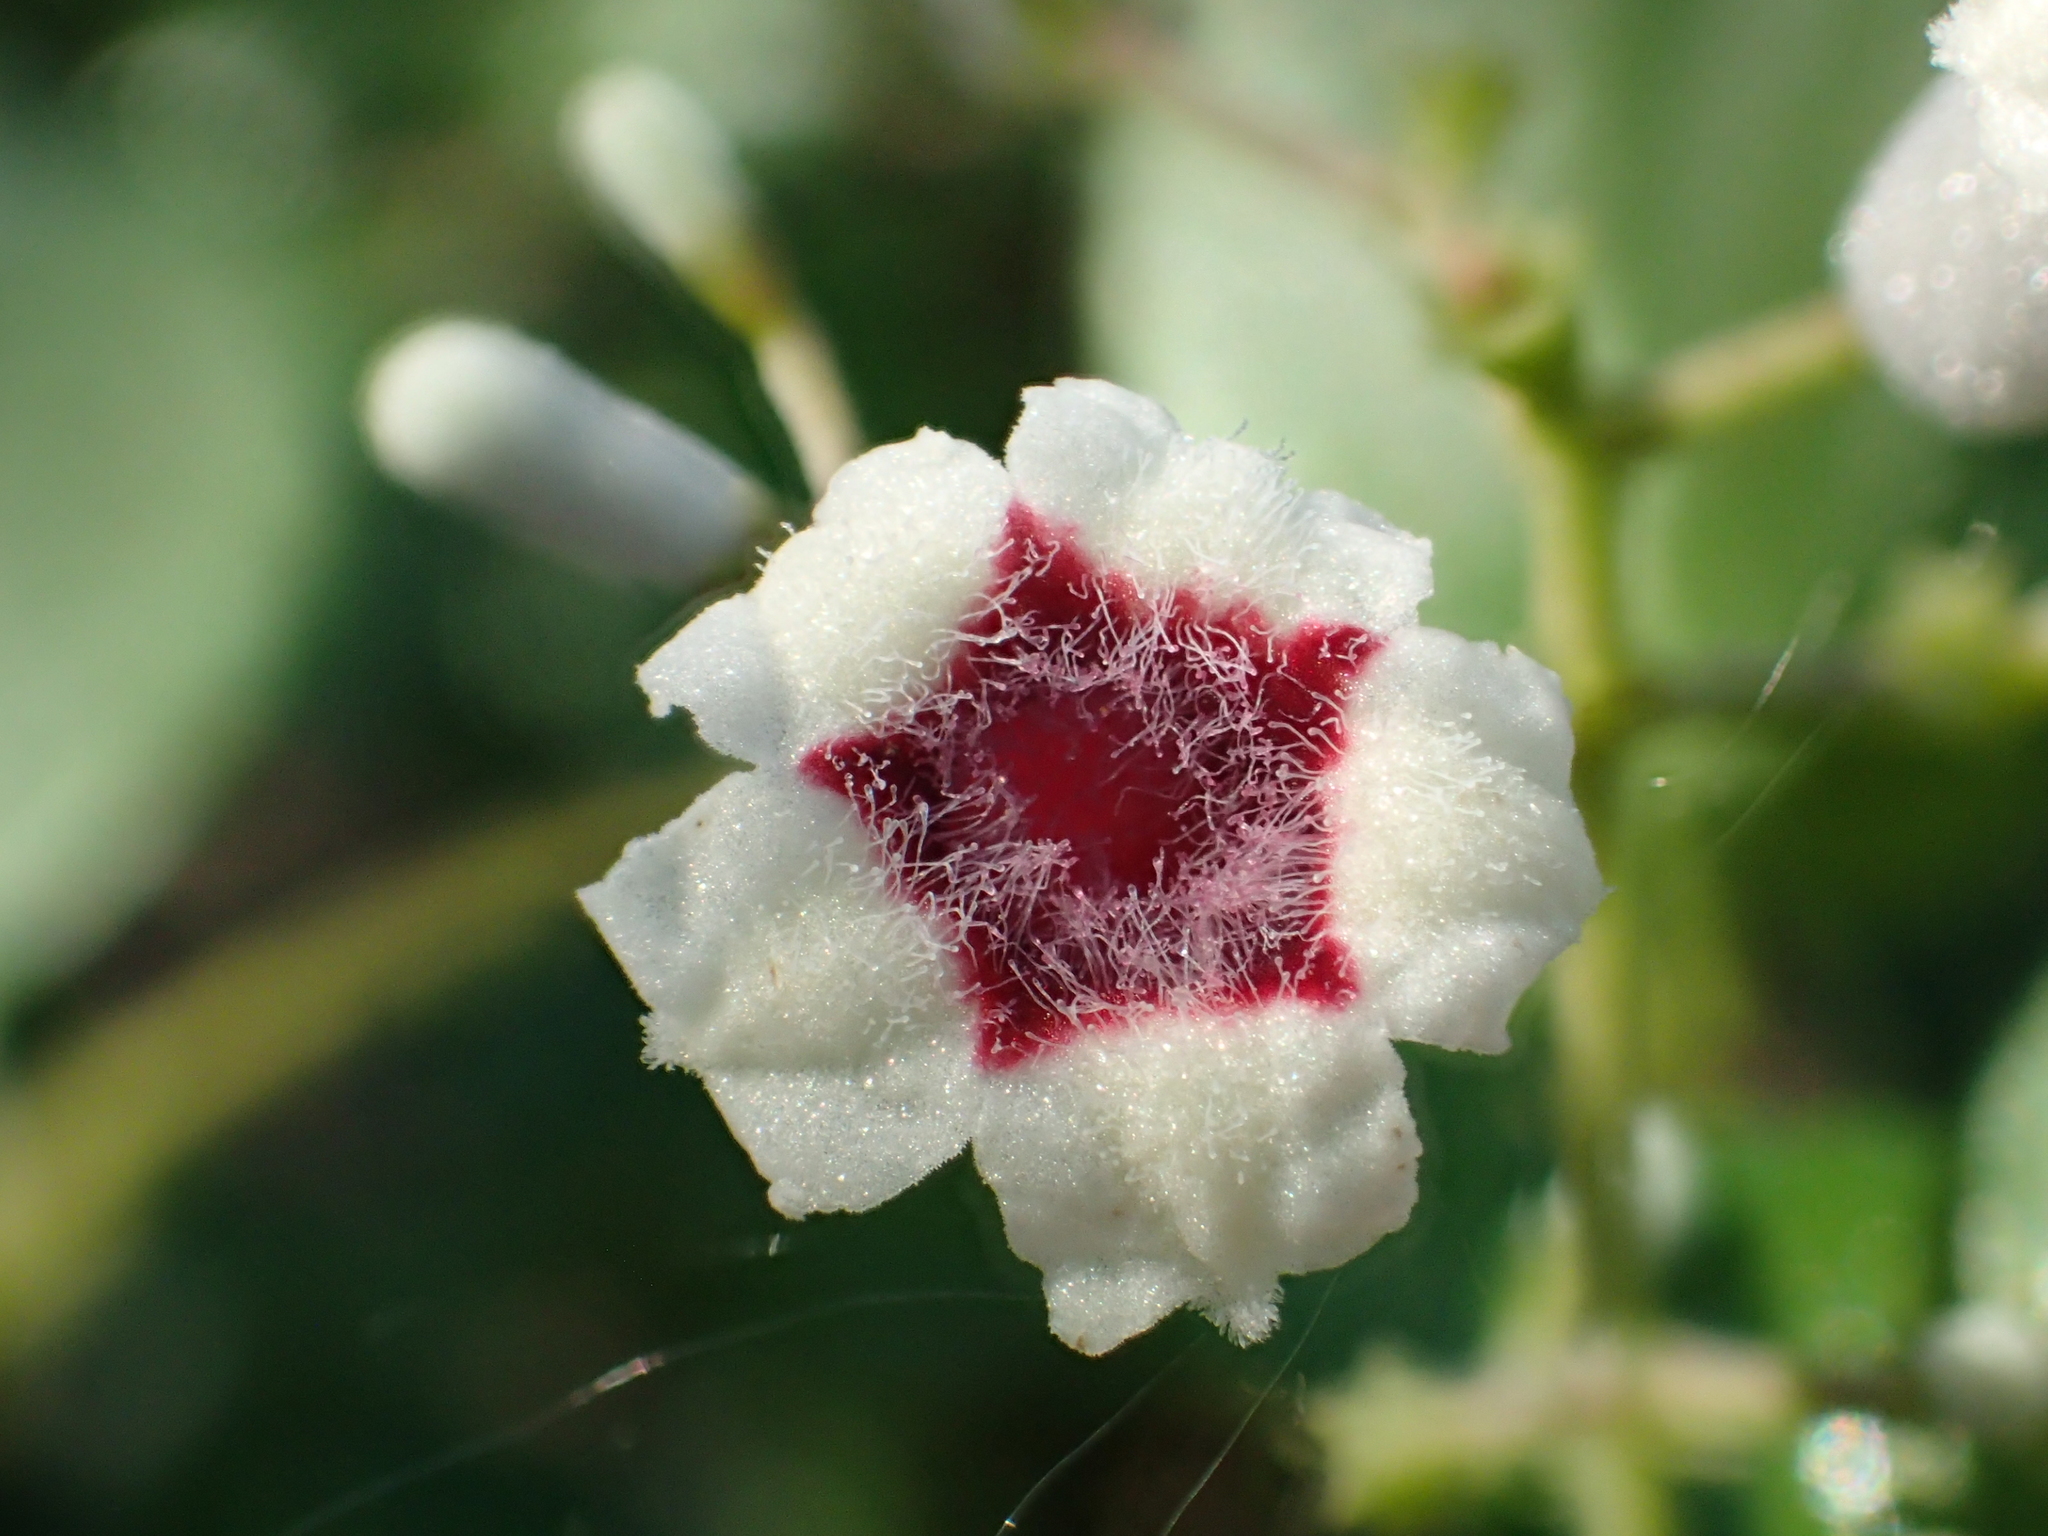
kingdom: Plantae
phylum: Tracheophyta
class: Magnoliopsida
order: Gentianales
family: Rubiaceae
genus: Paederia
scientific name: Paederia foetida
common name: Stinkvine
